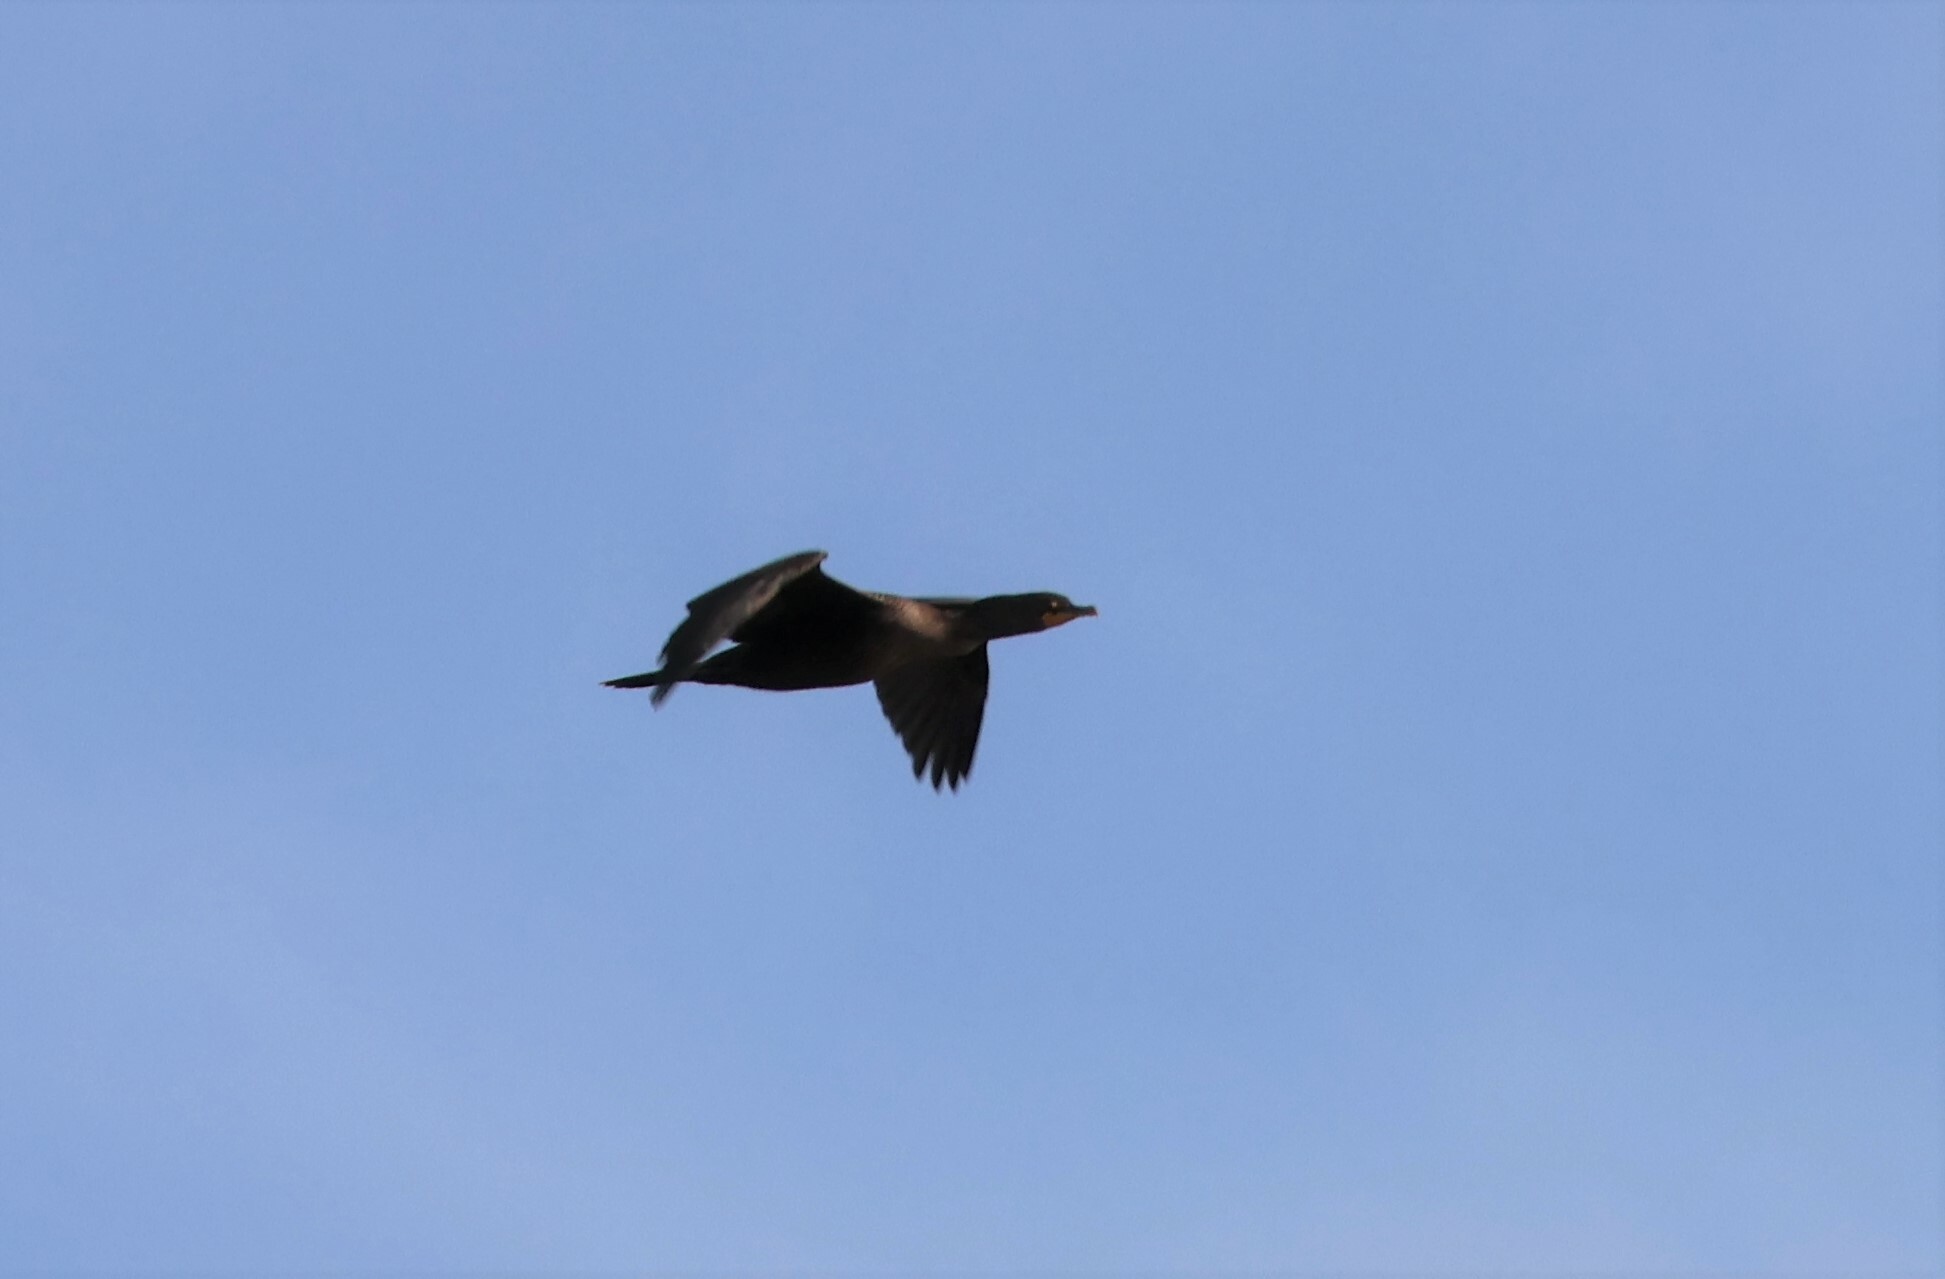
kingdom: Animalia
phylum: Chordata
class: Aves
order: Suliformes
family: Phalacrocoracidae
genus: Phalacrocorax
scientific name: Phalacrocorax auritus
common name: Double-crested cormorant
